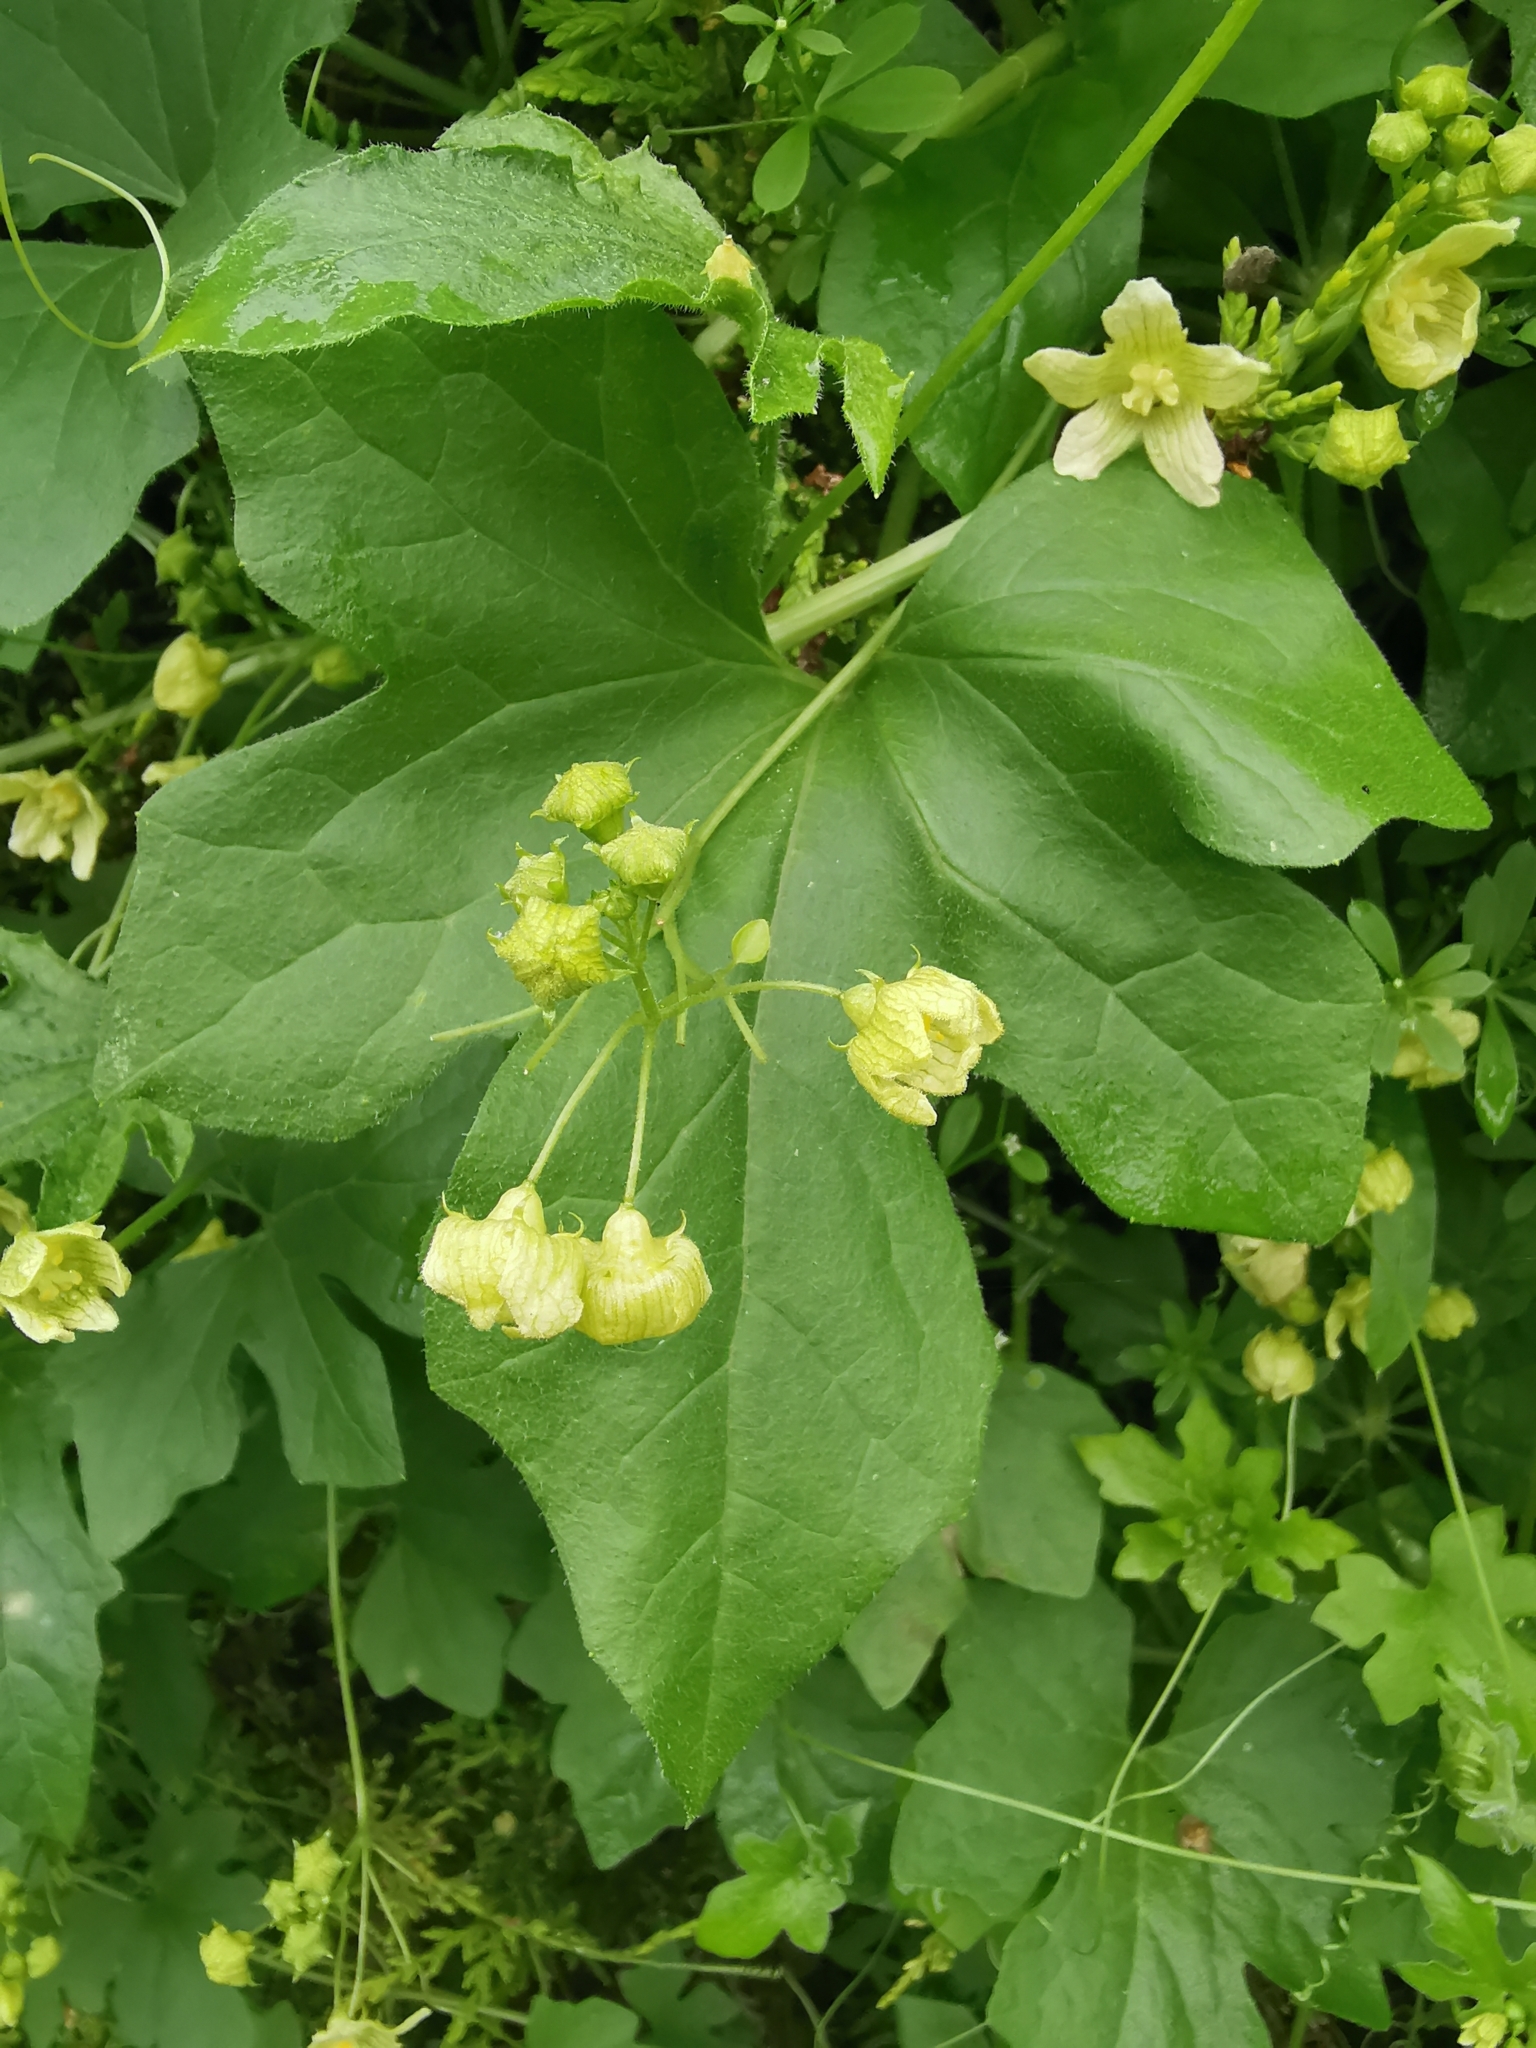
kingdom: Plantae
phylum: Tracheophyta
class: Magnoliopsida
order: Cucurbitales
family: Cucurbitaceae
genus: Bryonia
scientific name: Bryonia cretica
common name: Cretan bryony
